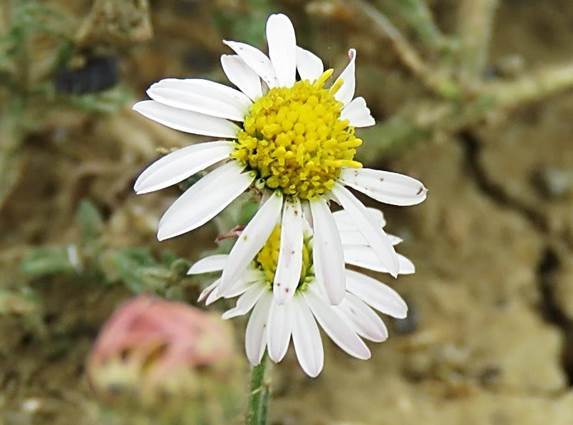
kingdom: Plantae
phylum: Tracheophyta
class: Magnoliopsida
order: Asterales
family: Asteraceae
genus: Aphanostephus
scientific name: Aphanostephus ramosissimus
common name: Plains lazy daisy
